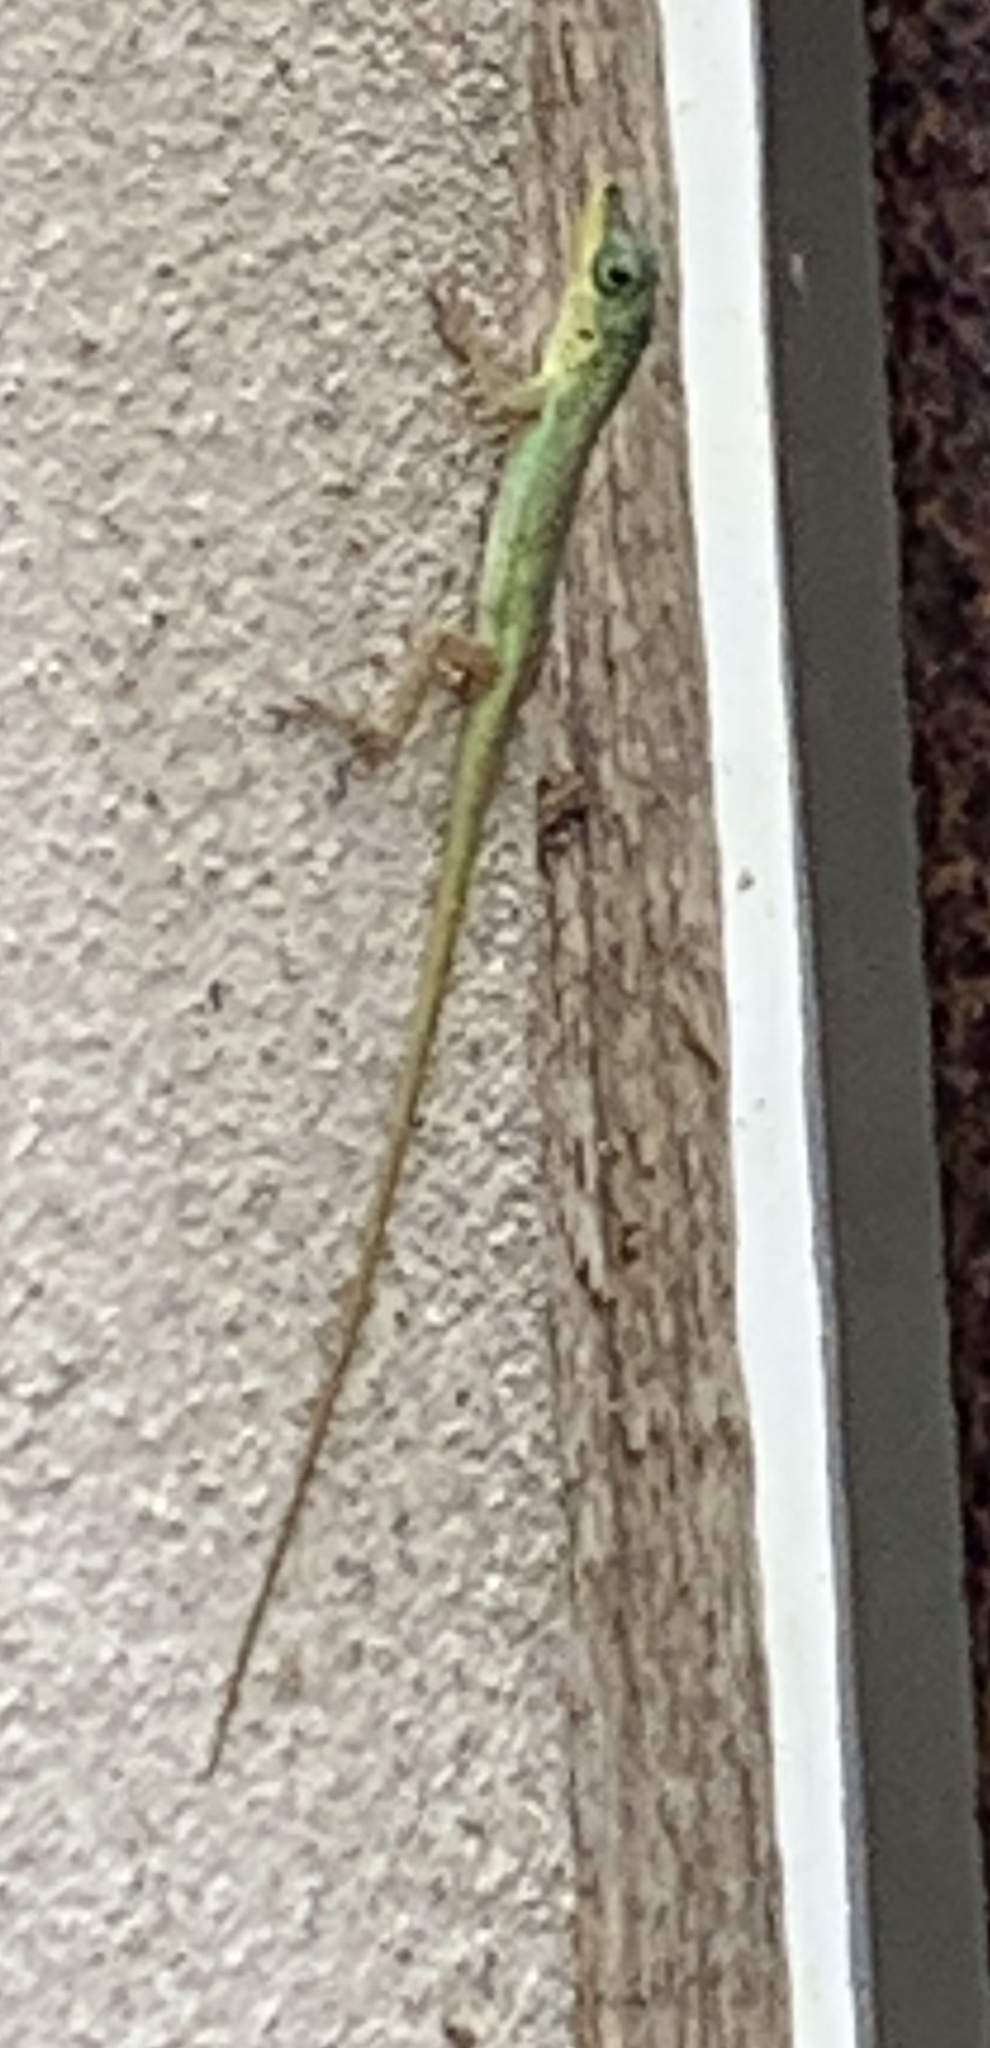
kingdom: Animalia
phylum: Chordata
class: Squamata
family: Dactyloidae
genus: Anolis
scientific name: Anolis richardii
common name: Grenada tree anole
